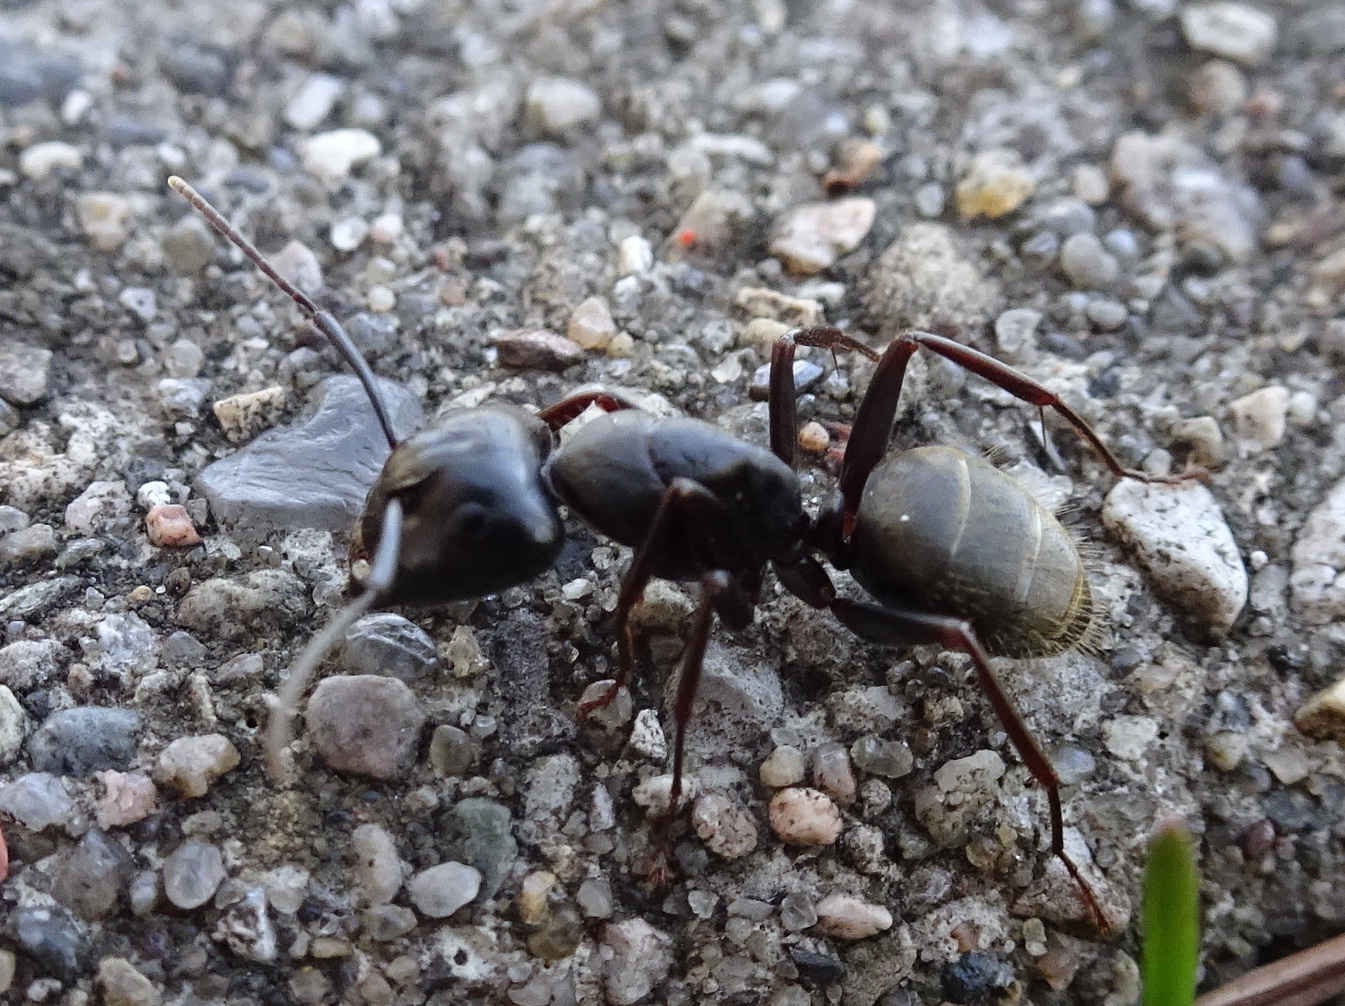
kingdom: Animalia
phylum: Arthropoda
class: Insecta
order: Hymenoptera
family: Formicidae
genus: Camponotus
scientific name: Camponotus pennsylvanicus
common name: Black carpenter ant
